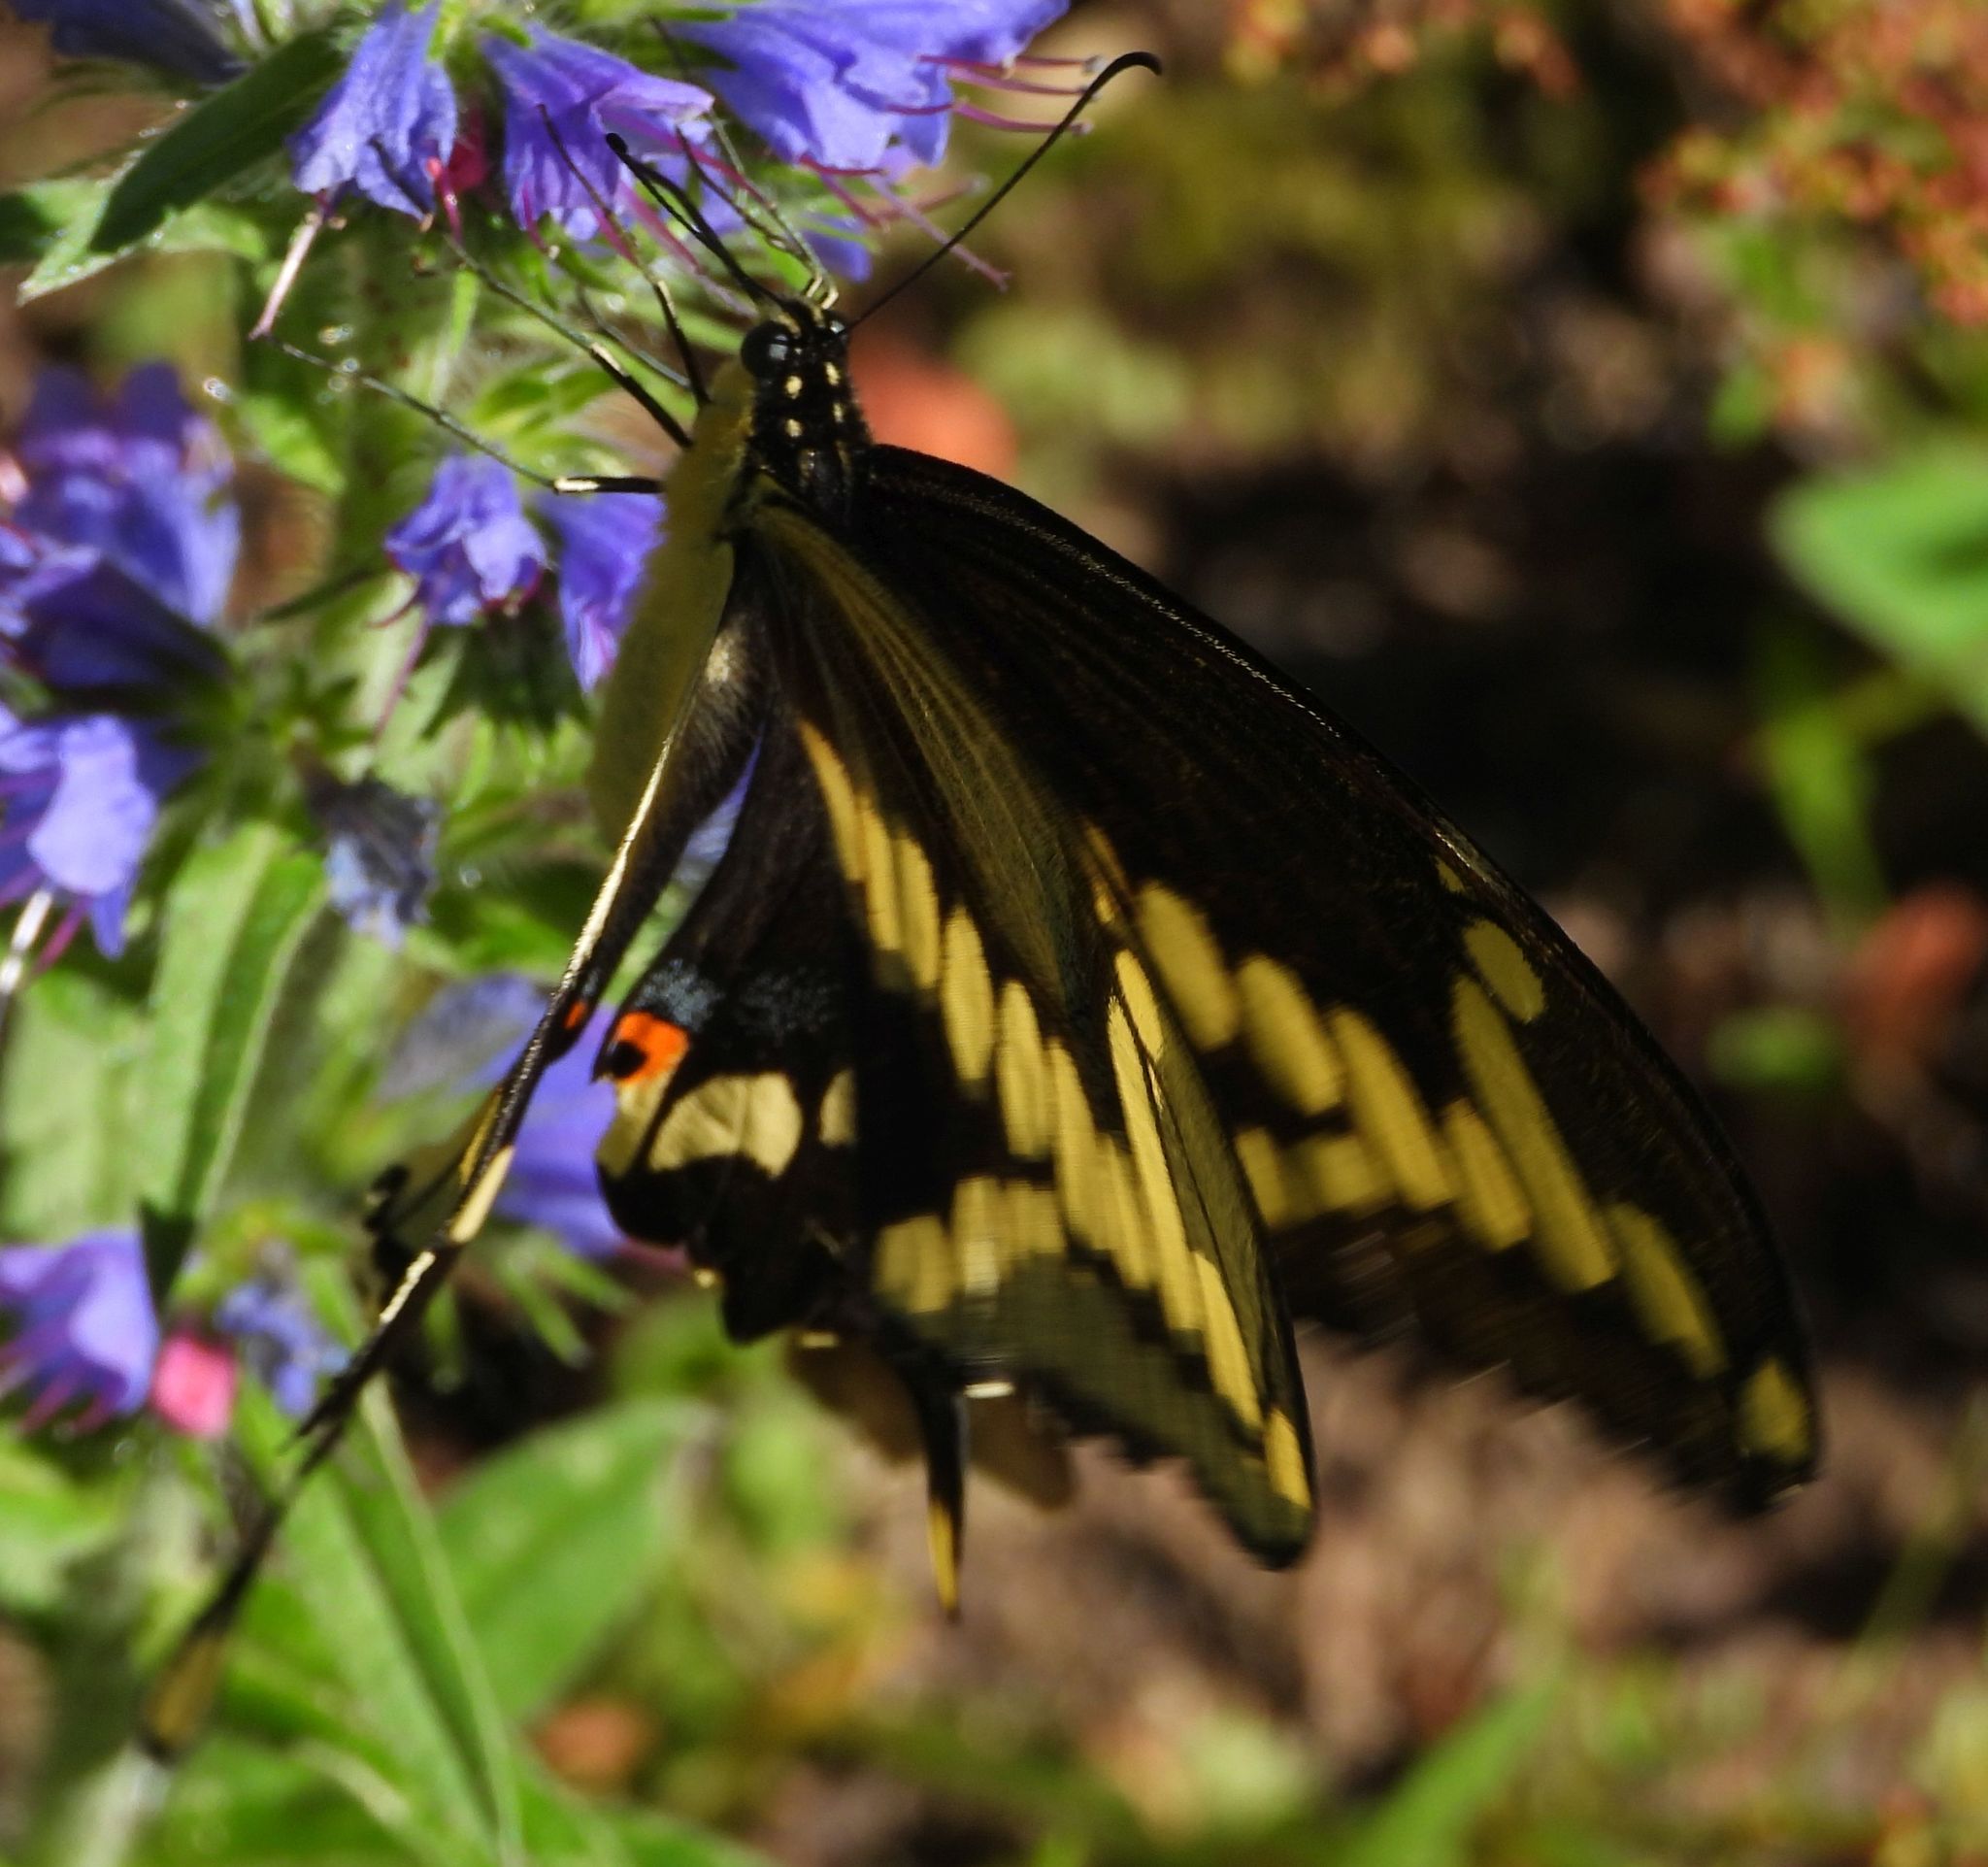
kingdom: Animalia
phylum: Arthropoda
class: Insecta
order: Lepidoptera
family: Papilionidae
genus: Papilio
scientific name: Papilio cresphontes
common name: Giant swallowtail
